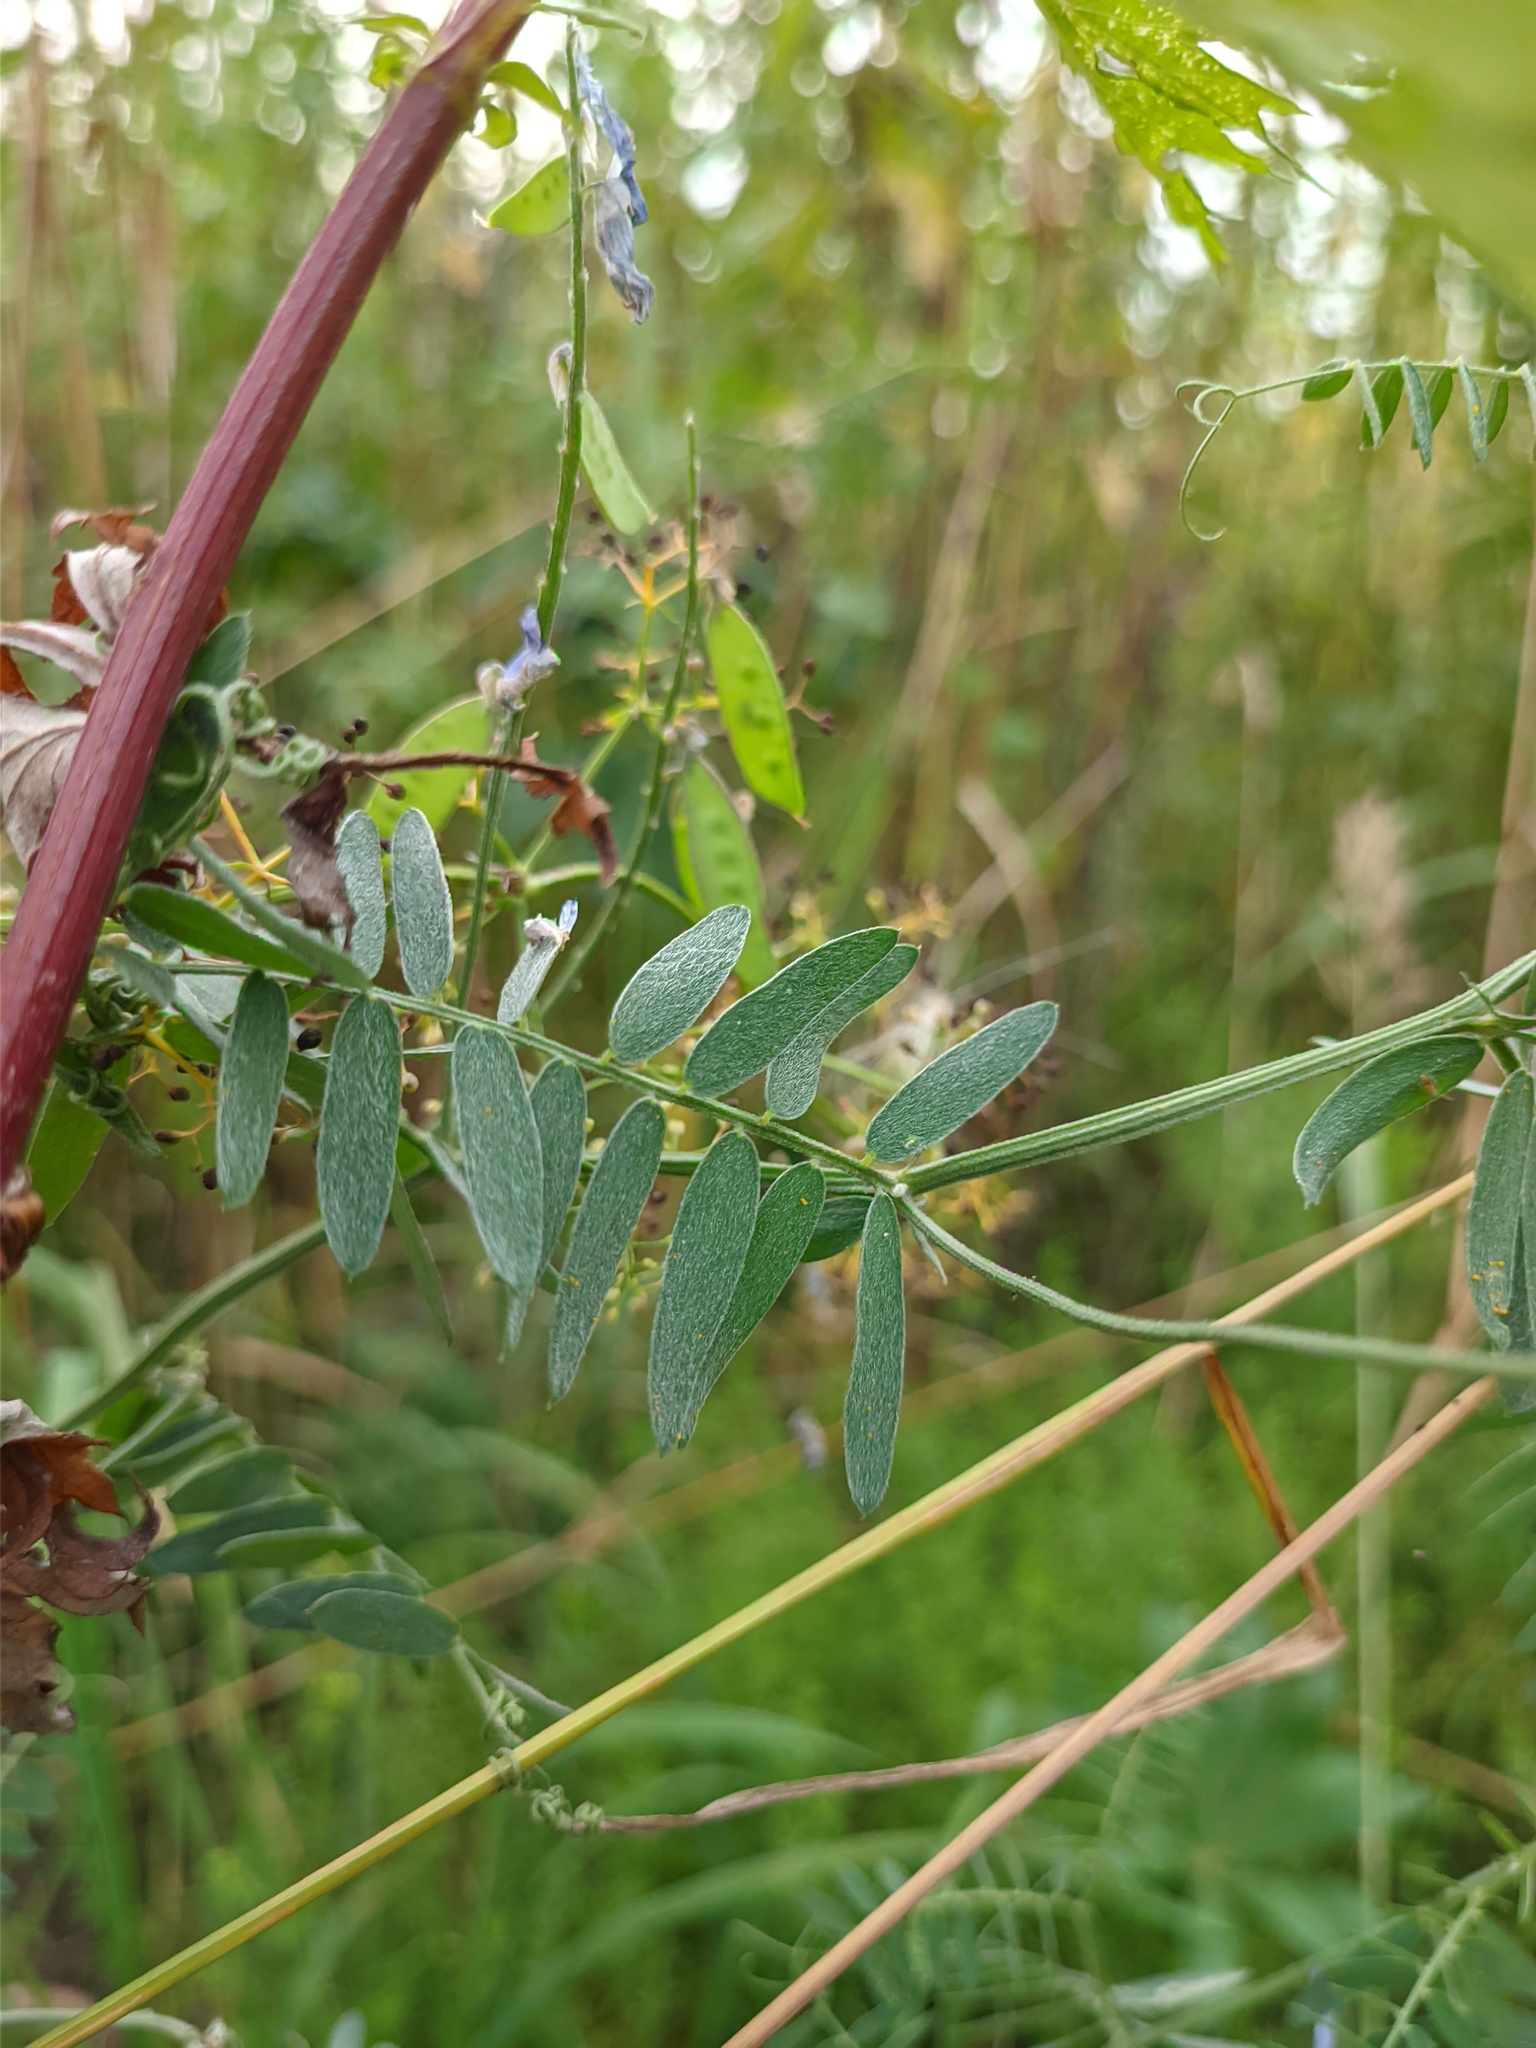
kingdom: Plantae
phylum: Tracheophyta
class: Magnoliopsida
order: Fabales
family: Fabaceae
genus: Vicia
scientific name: Vicia cracca
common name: Bird vetch
